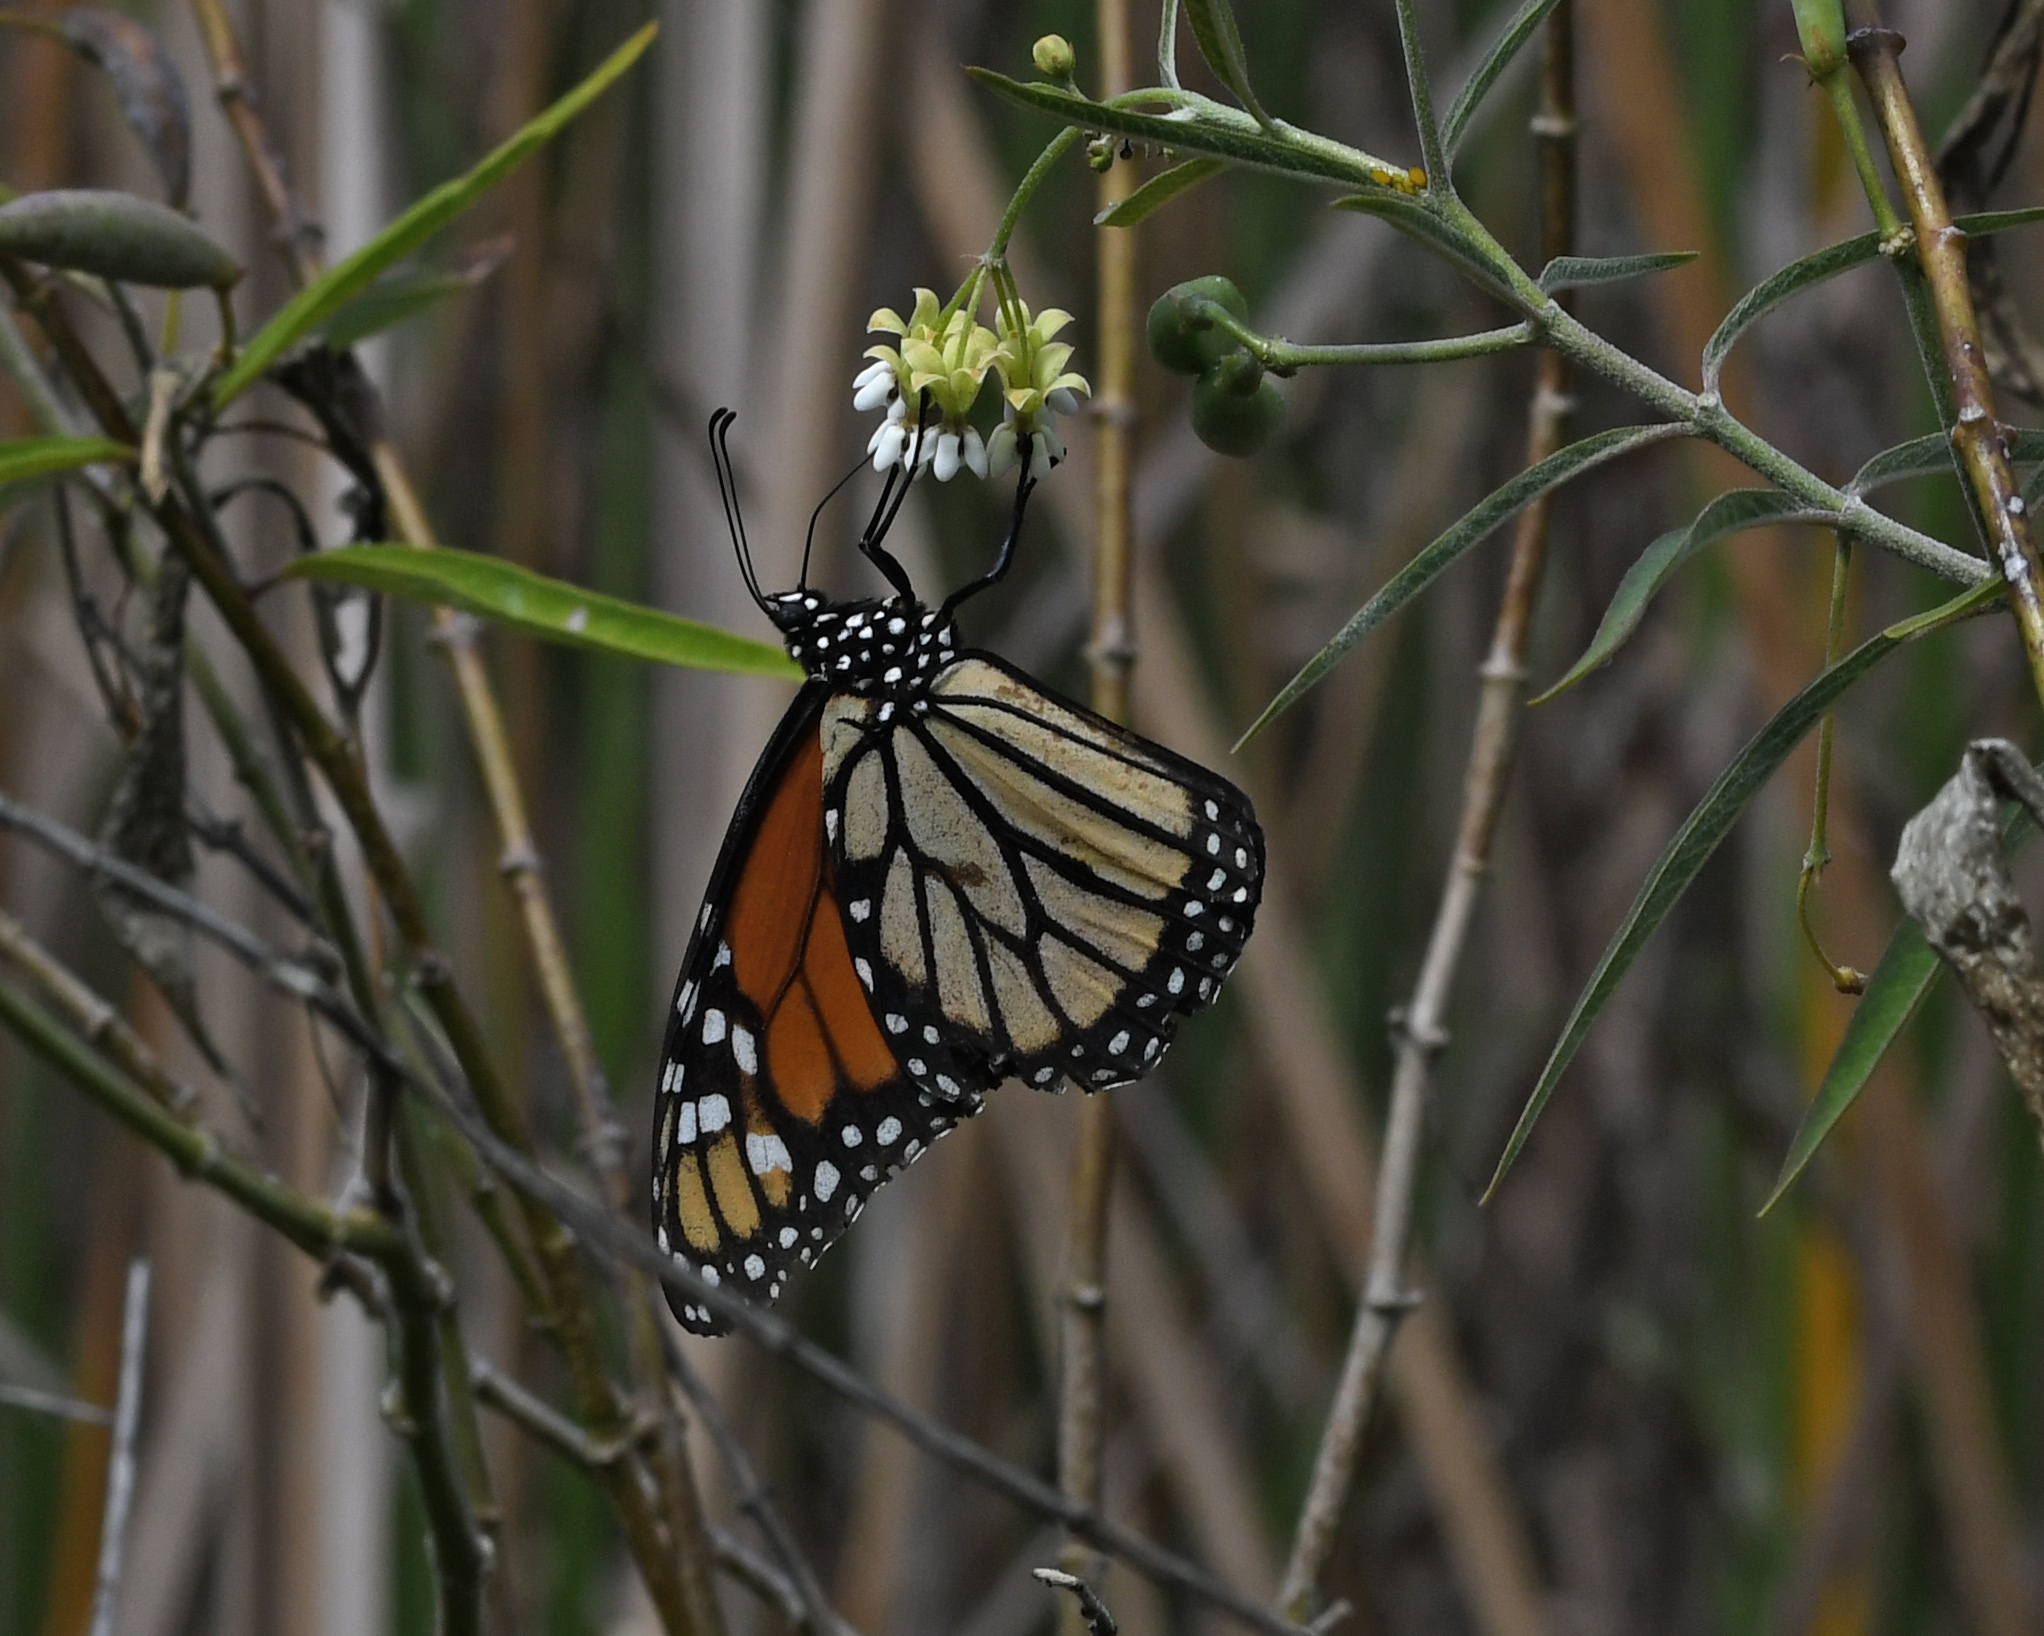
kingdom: Animalia
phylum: Arthropoda
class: Insecta
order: Lepidoptera
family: Nymphalidae
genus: Danaus
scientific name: Danaus plexippus
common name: Monarch
